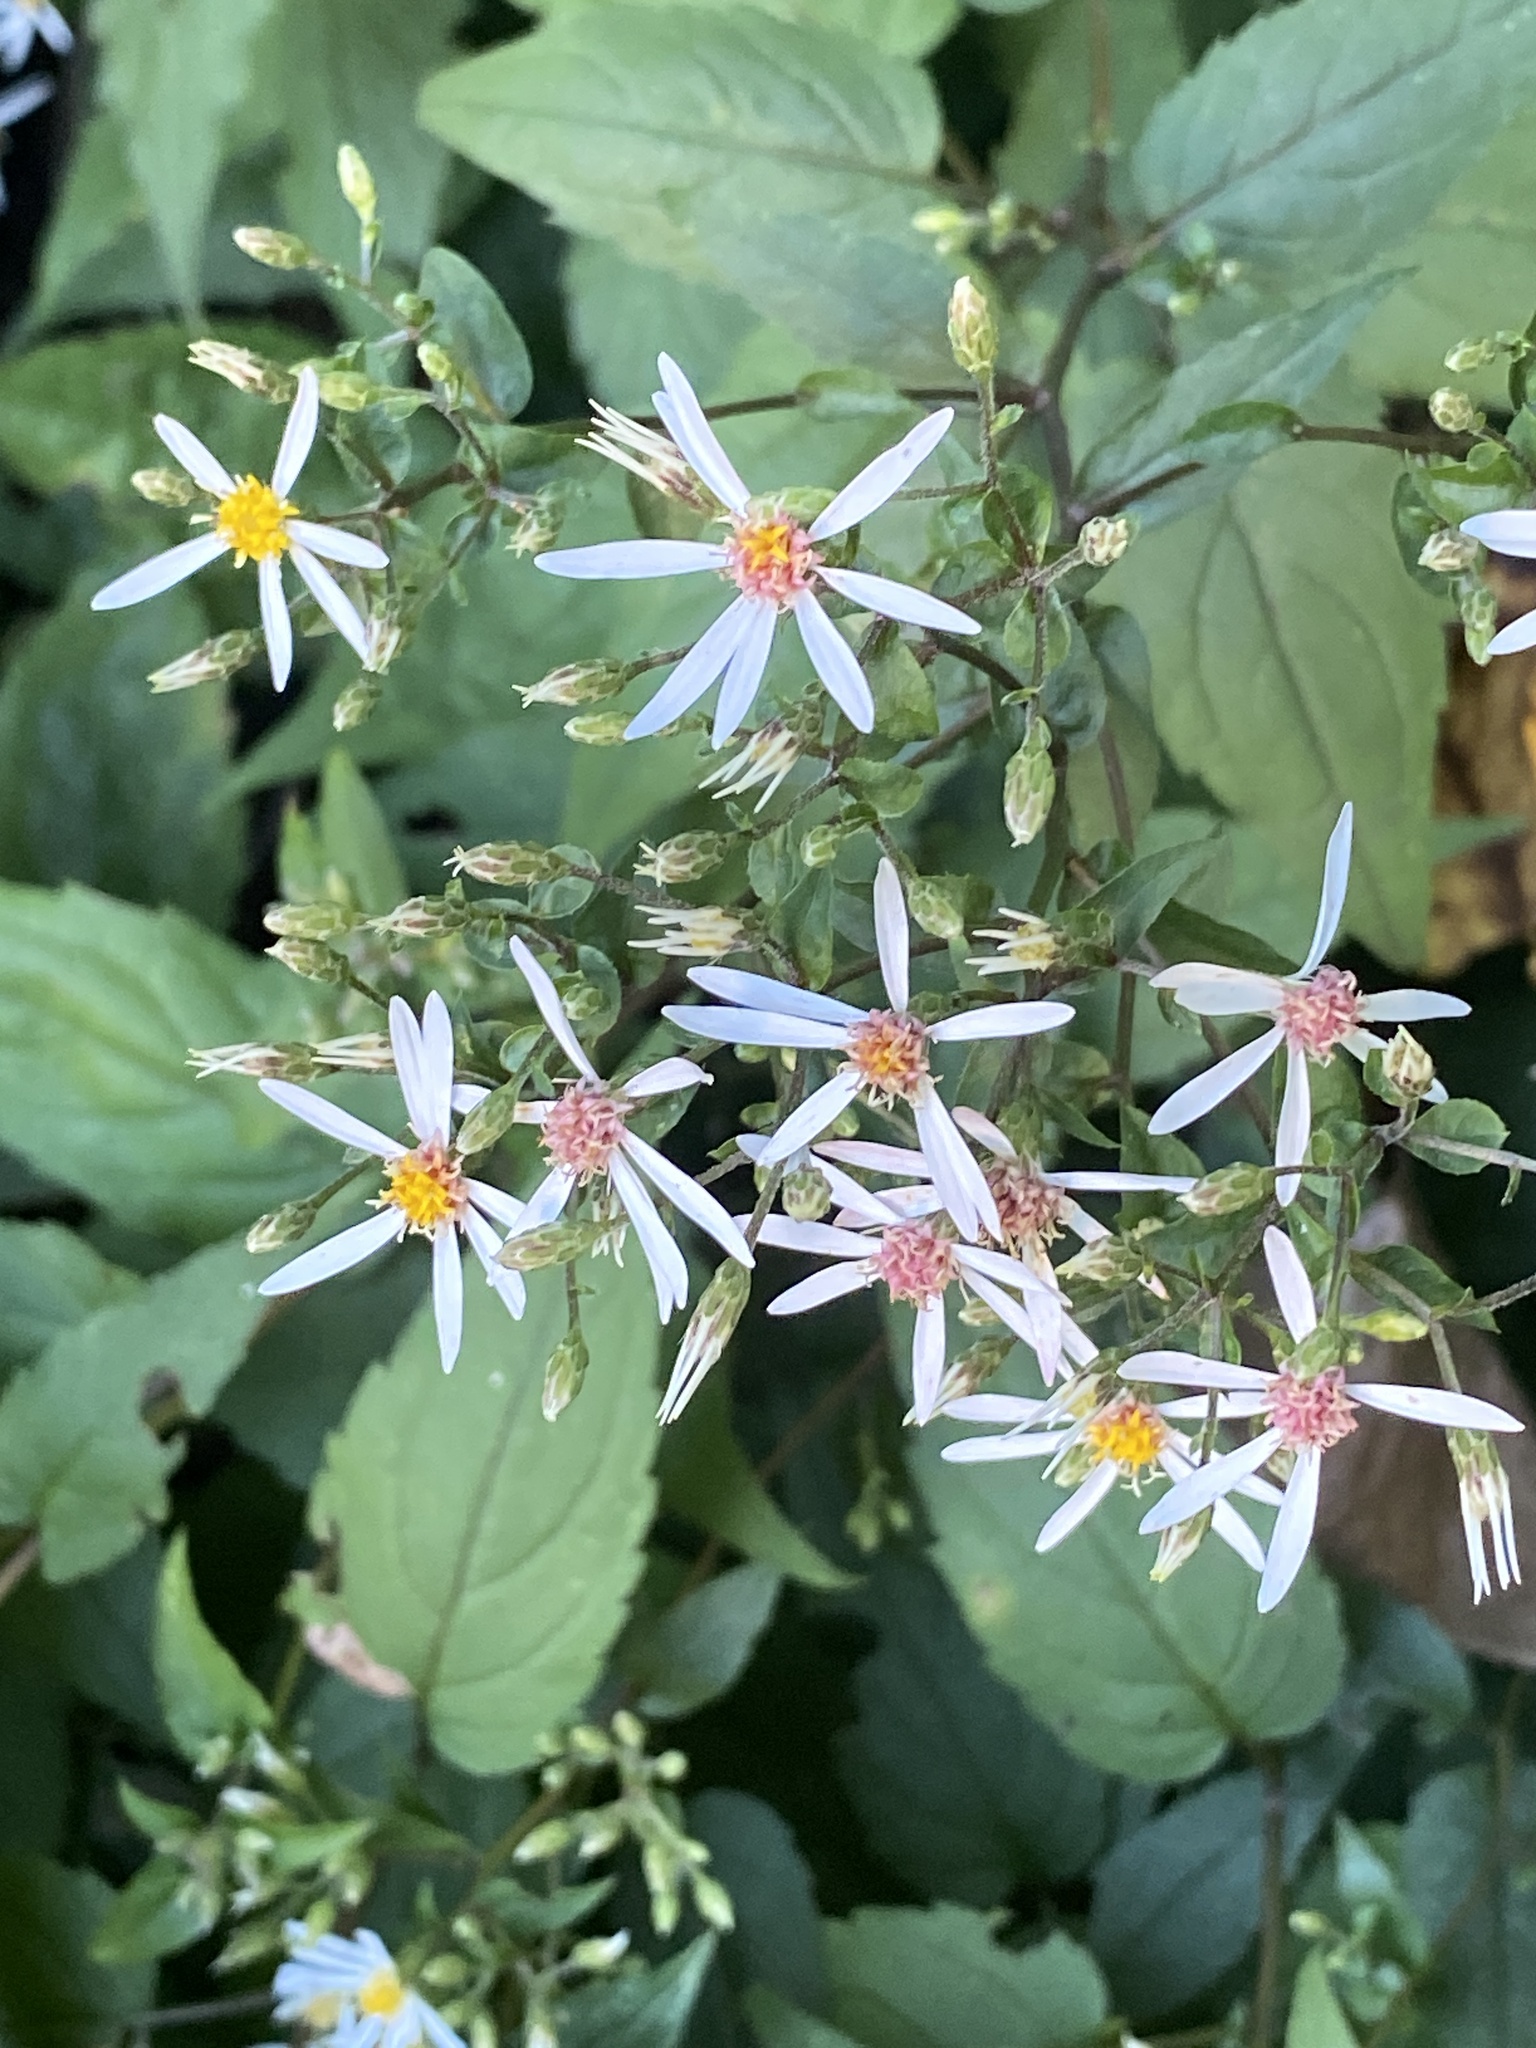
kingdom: Plantae
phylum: Tracheophyta
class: Magnoliopsida
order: Asterales
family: Asteraceae
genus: Eurybia
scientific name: Eurybia divaricata
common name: White wood aster
